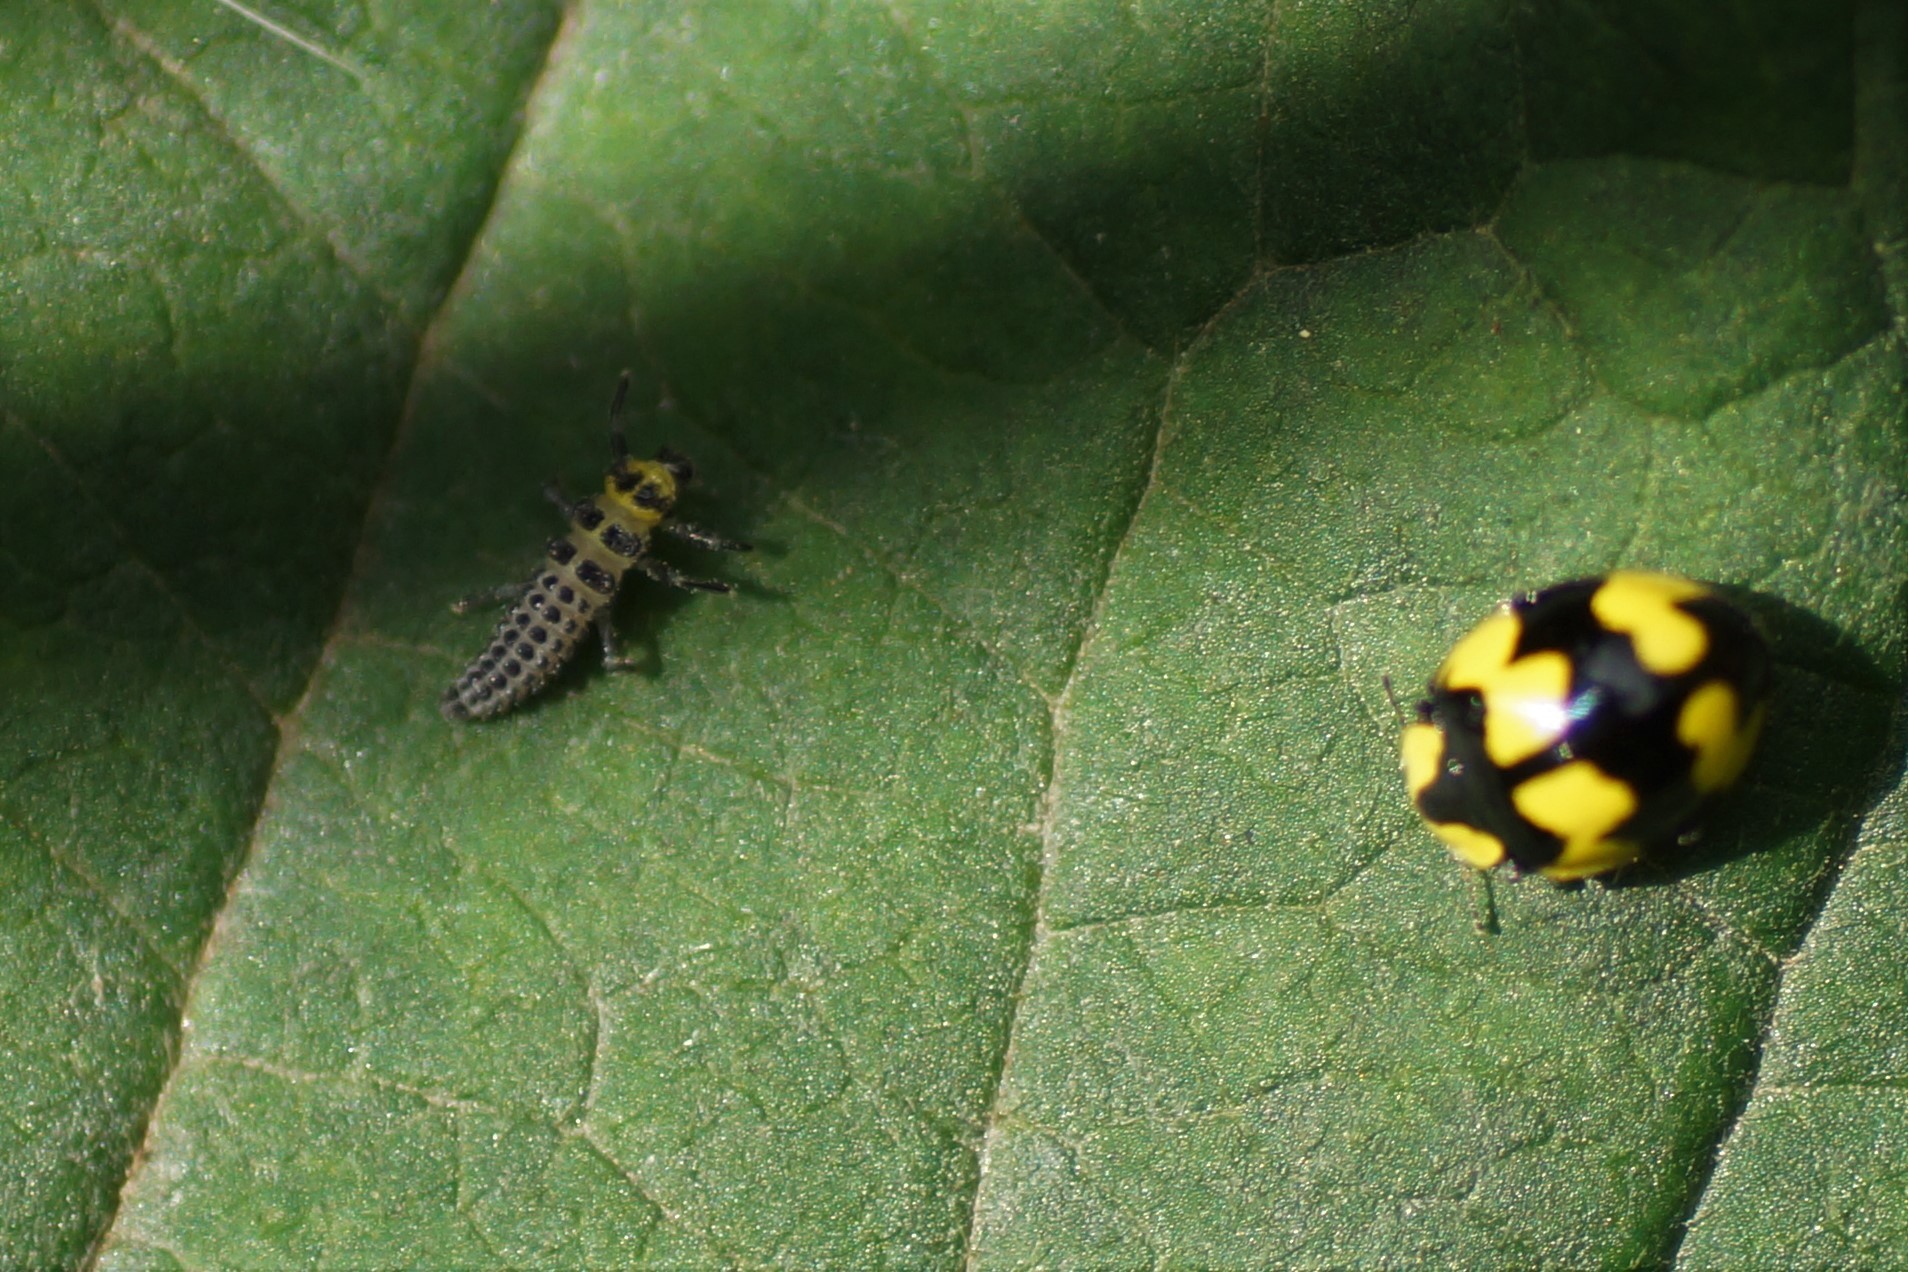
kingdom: Animalia
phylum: Arthropoda
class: Insecta
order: Coleoptera
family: Coccinellidae
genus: Illeis
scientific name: Illeis galbula
